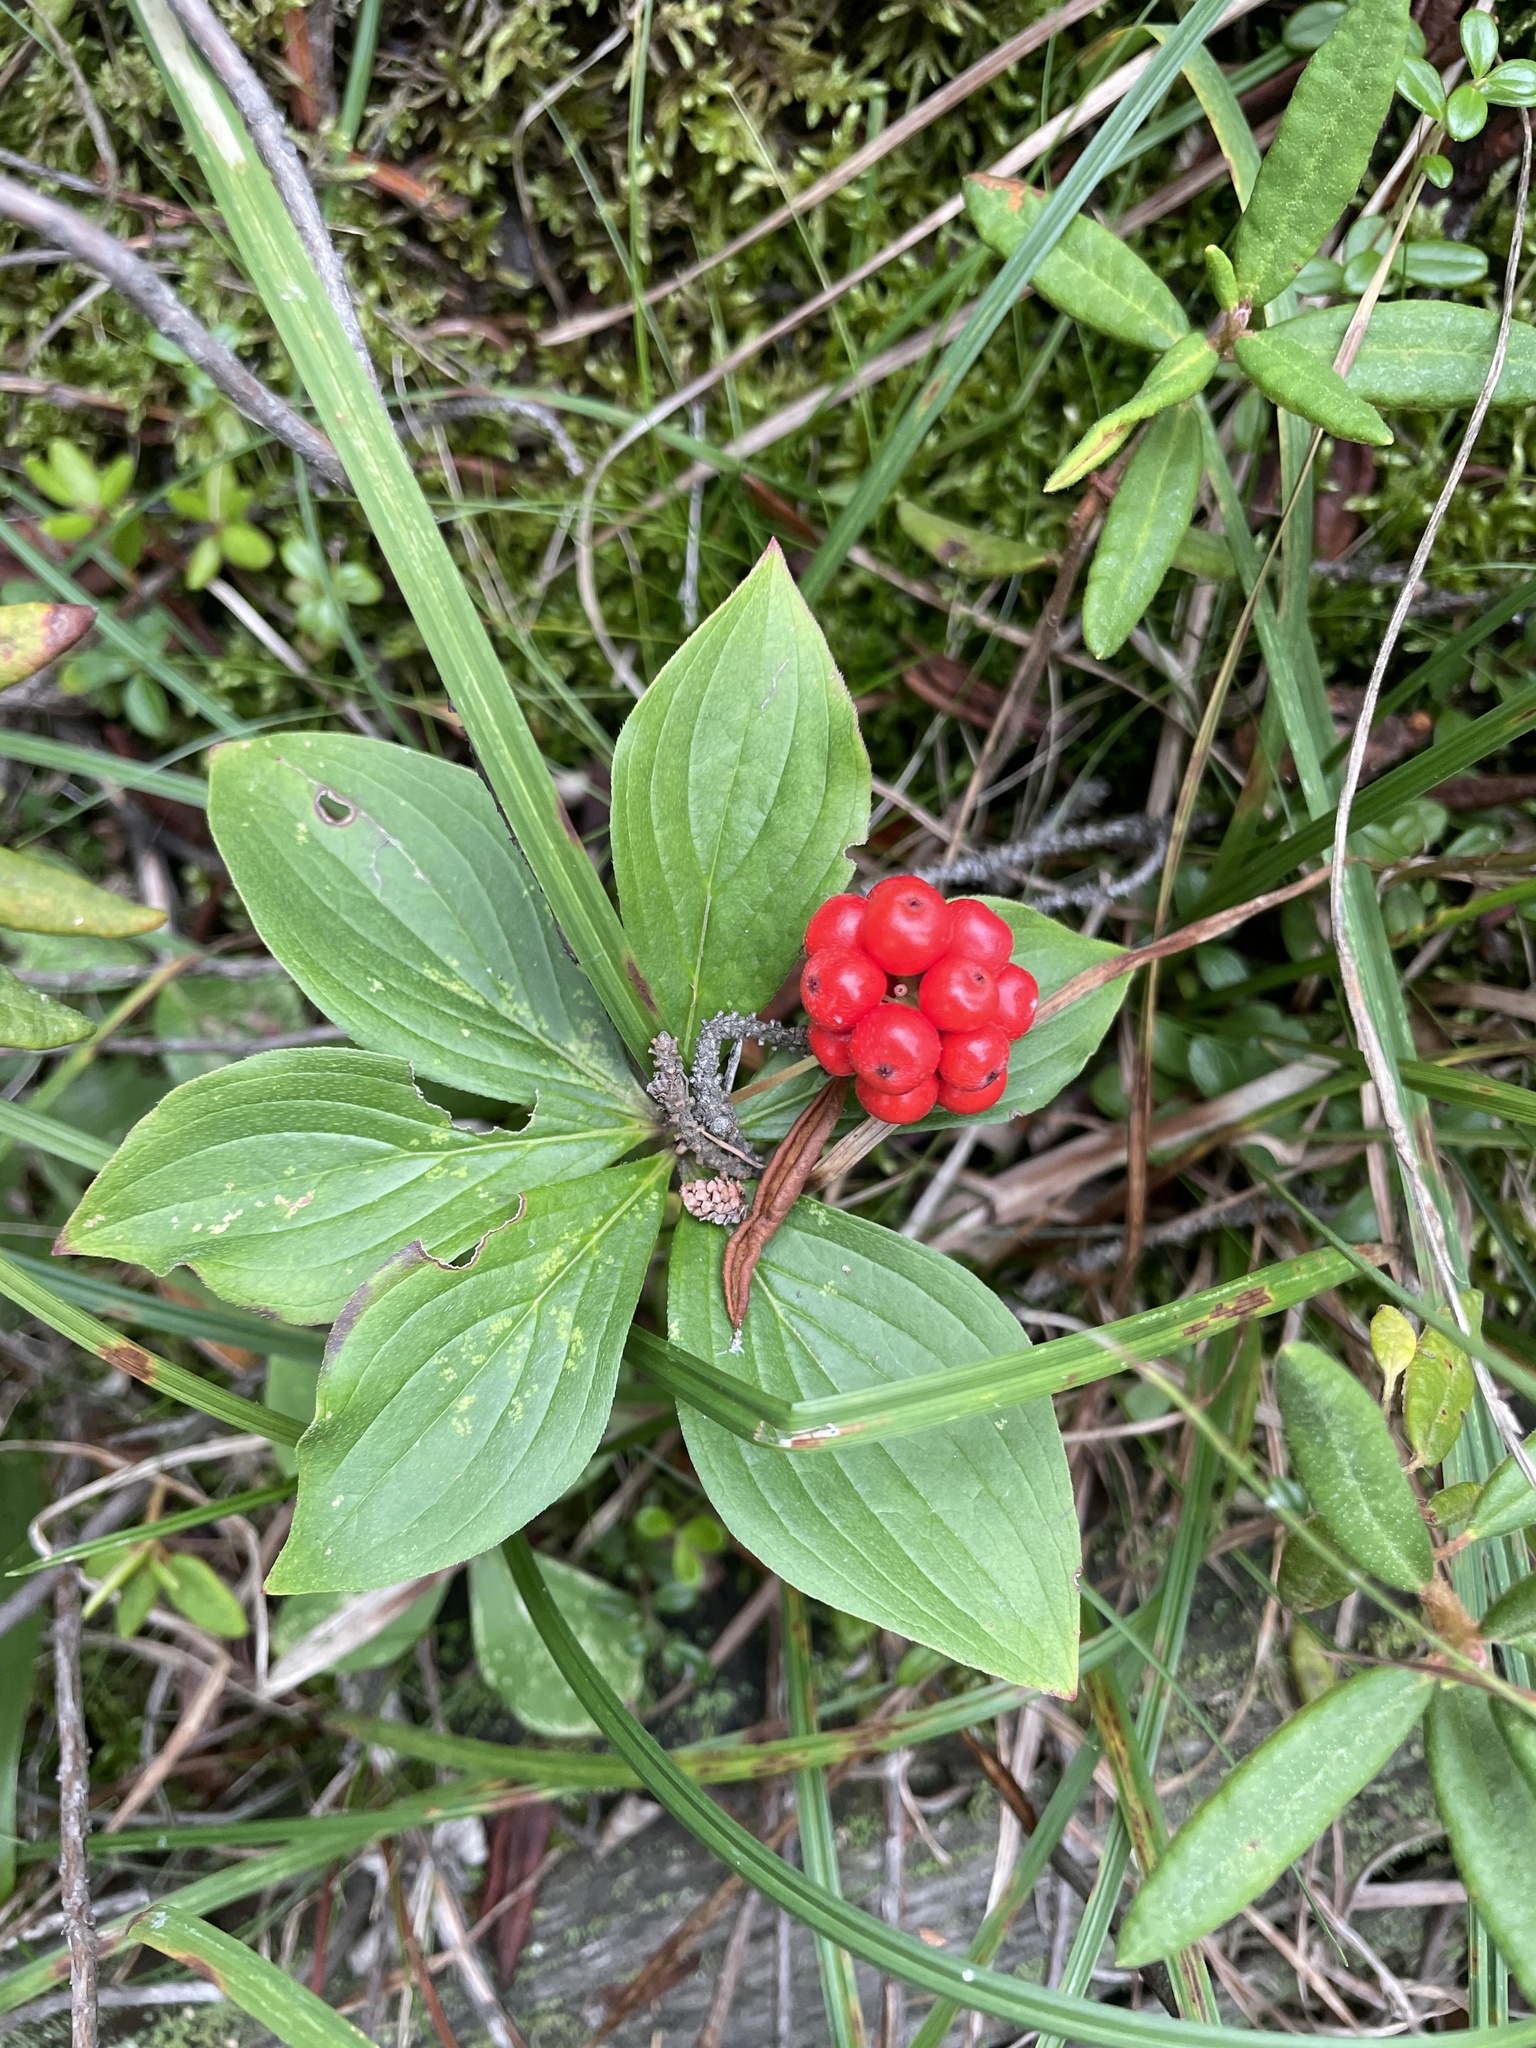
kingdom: Plantae
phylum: Tracheophyta
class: Magnoliopsida
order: Cornales
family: Cornaceae
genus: Cornus
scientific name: Cornus canadensis
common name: Creeping dogwood
